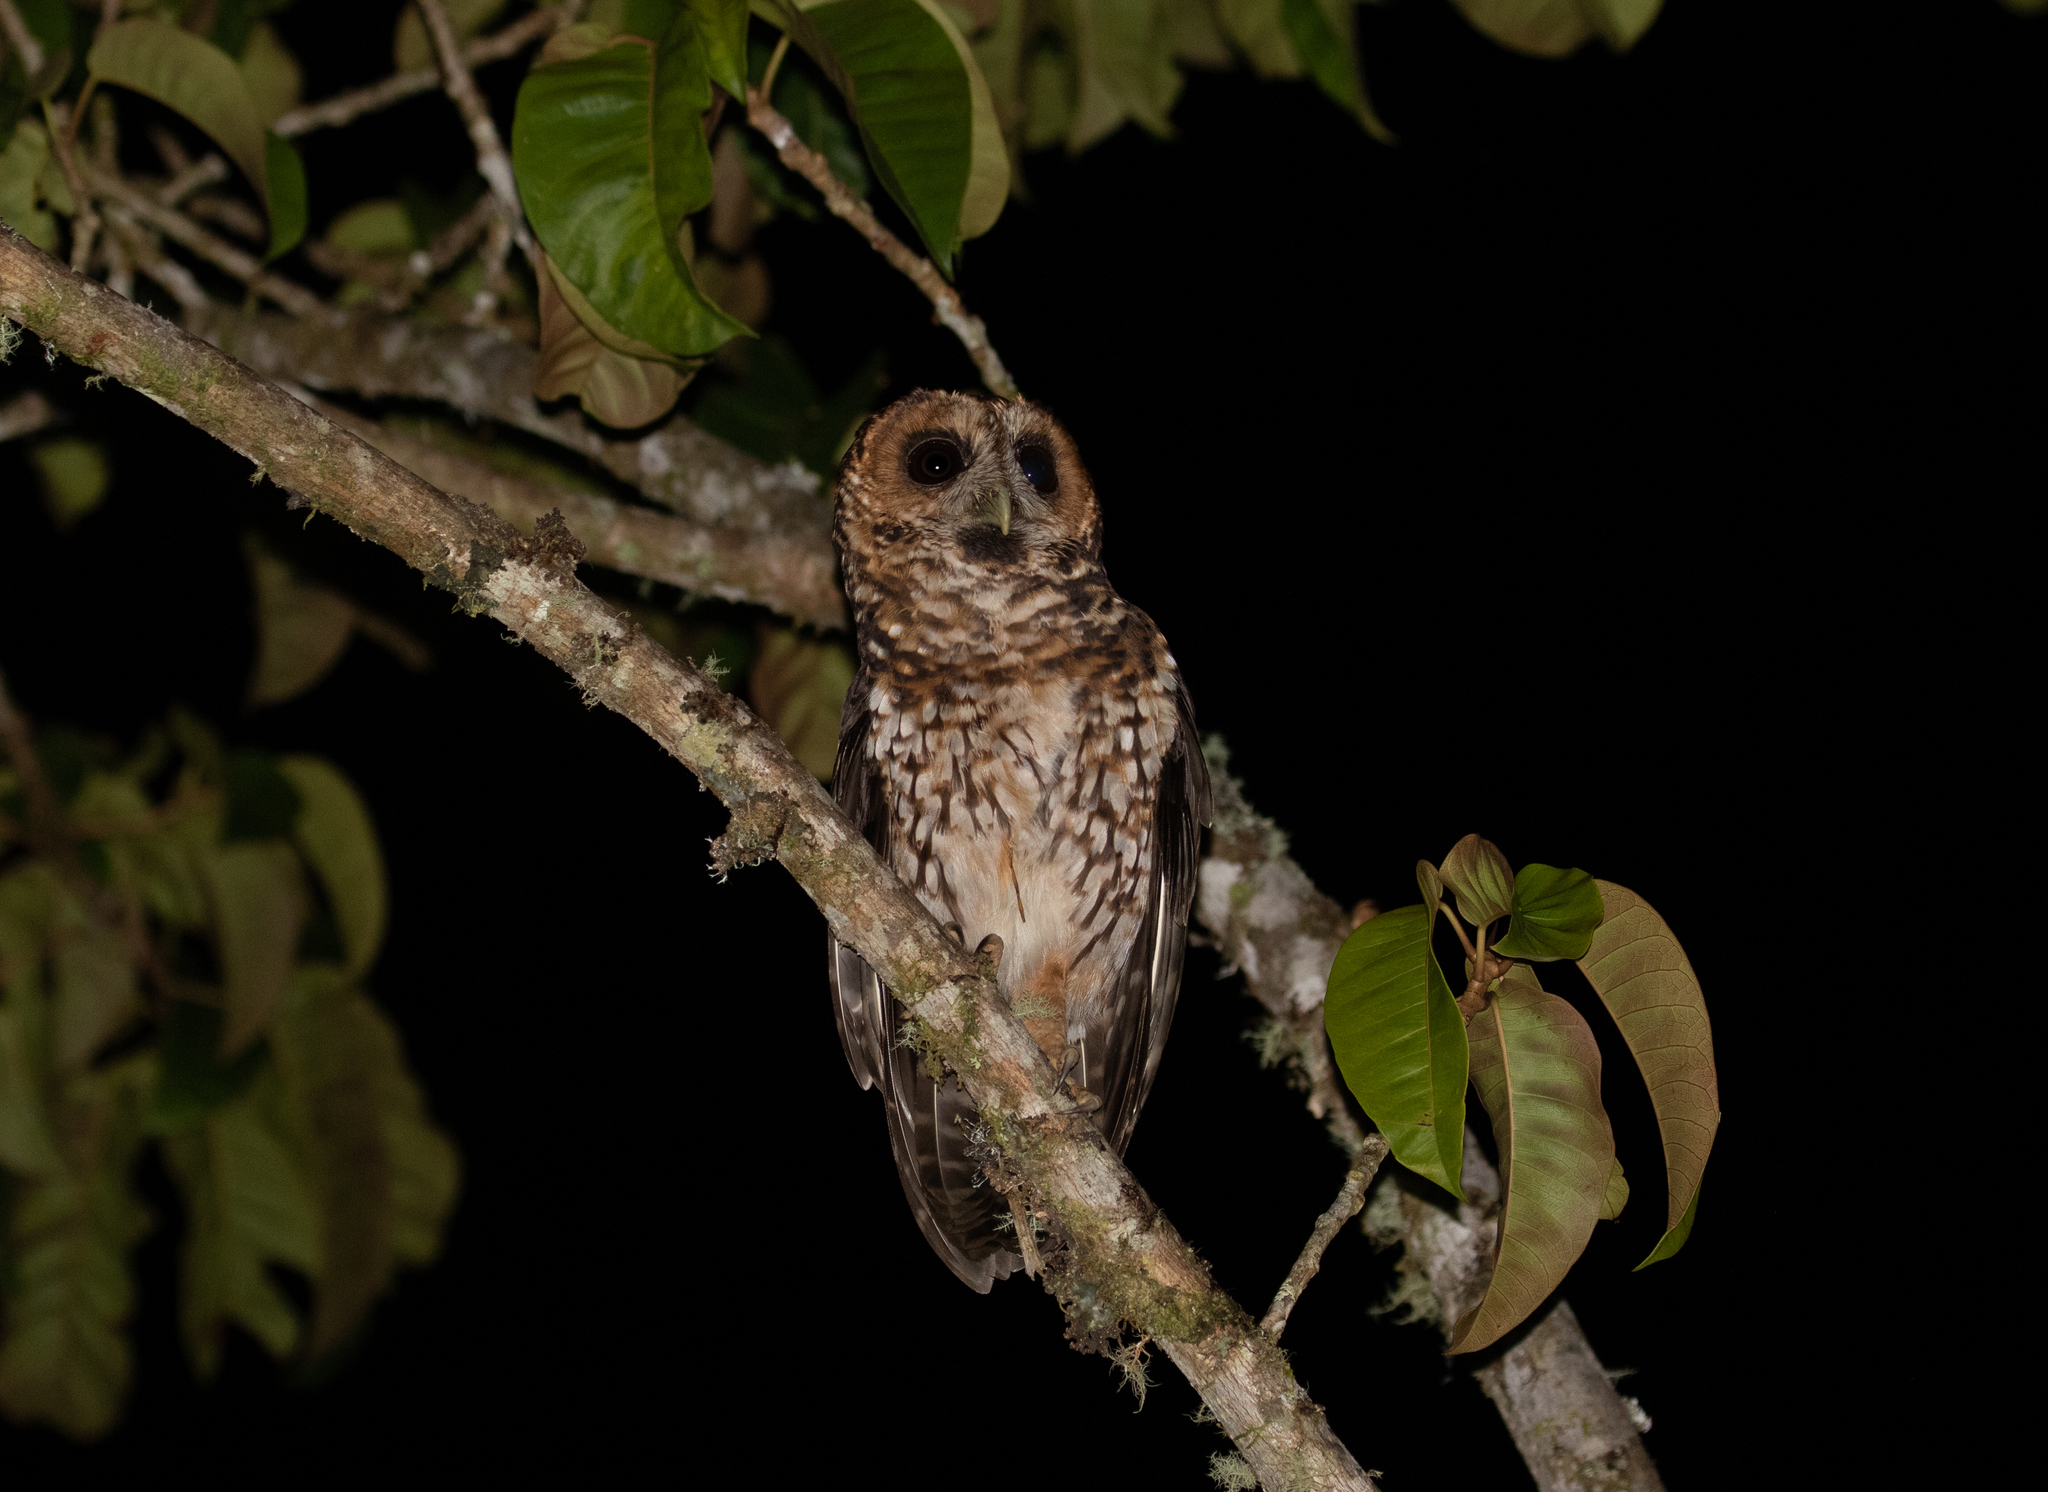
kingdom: Animalia
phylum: Chordata
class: Aves
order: Strigiformes
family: Strigidae
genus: Strix
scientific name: Strix albitarsis
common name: Rufous-banded owl
